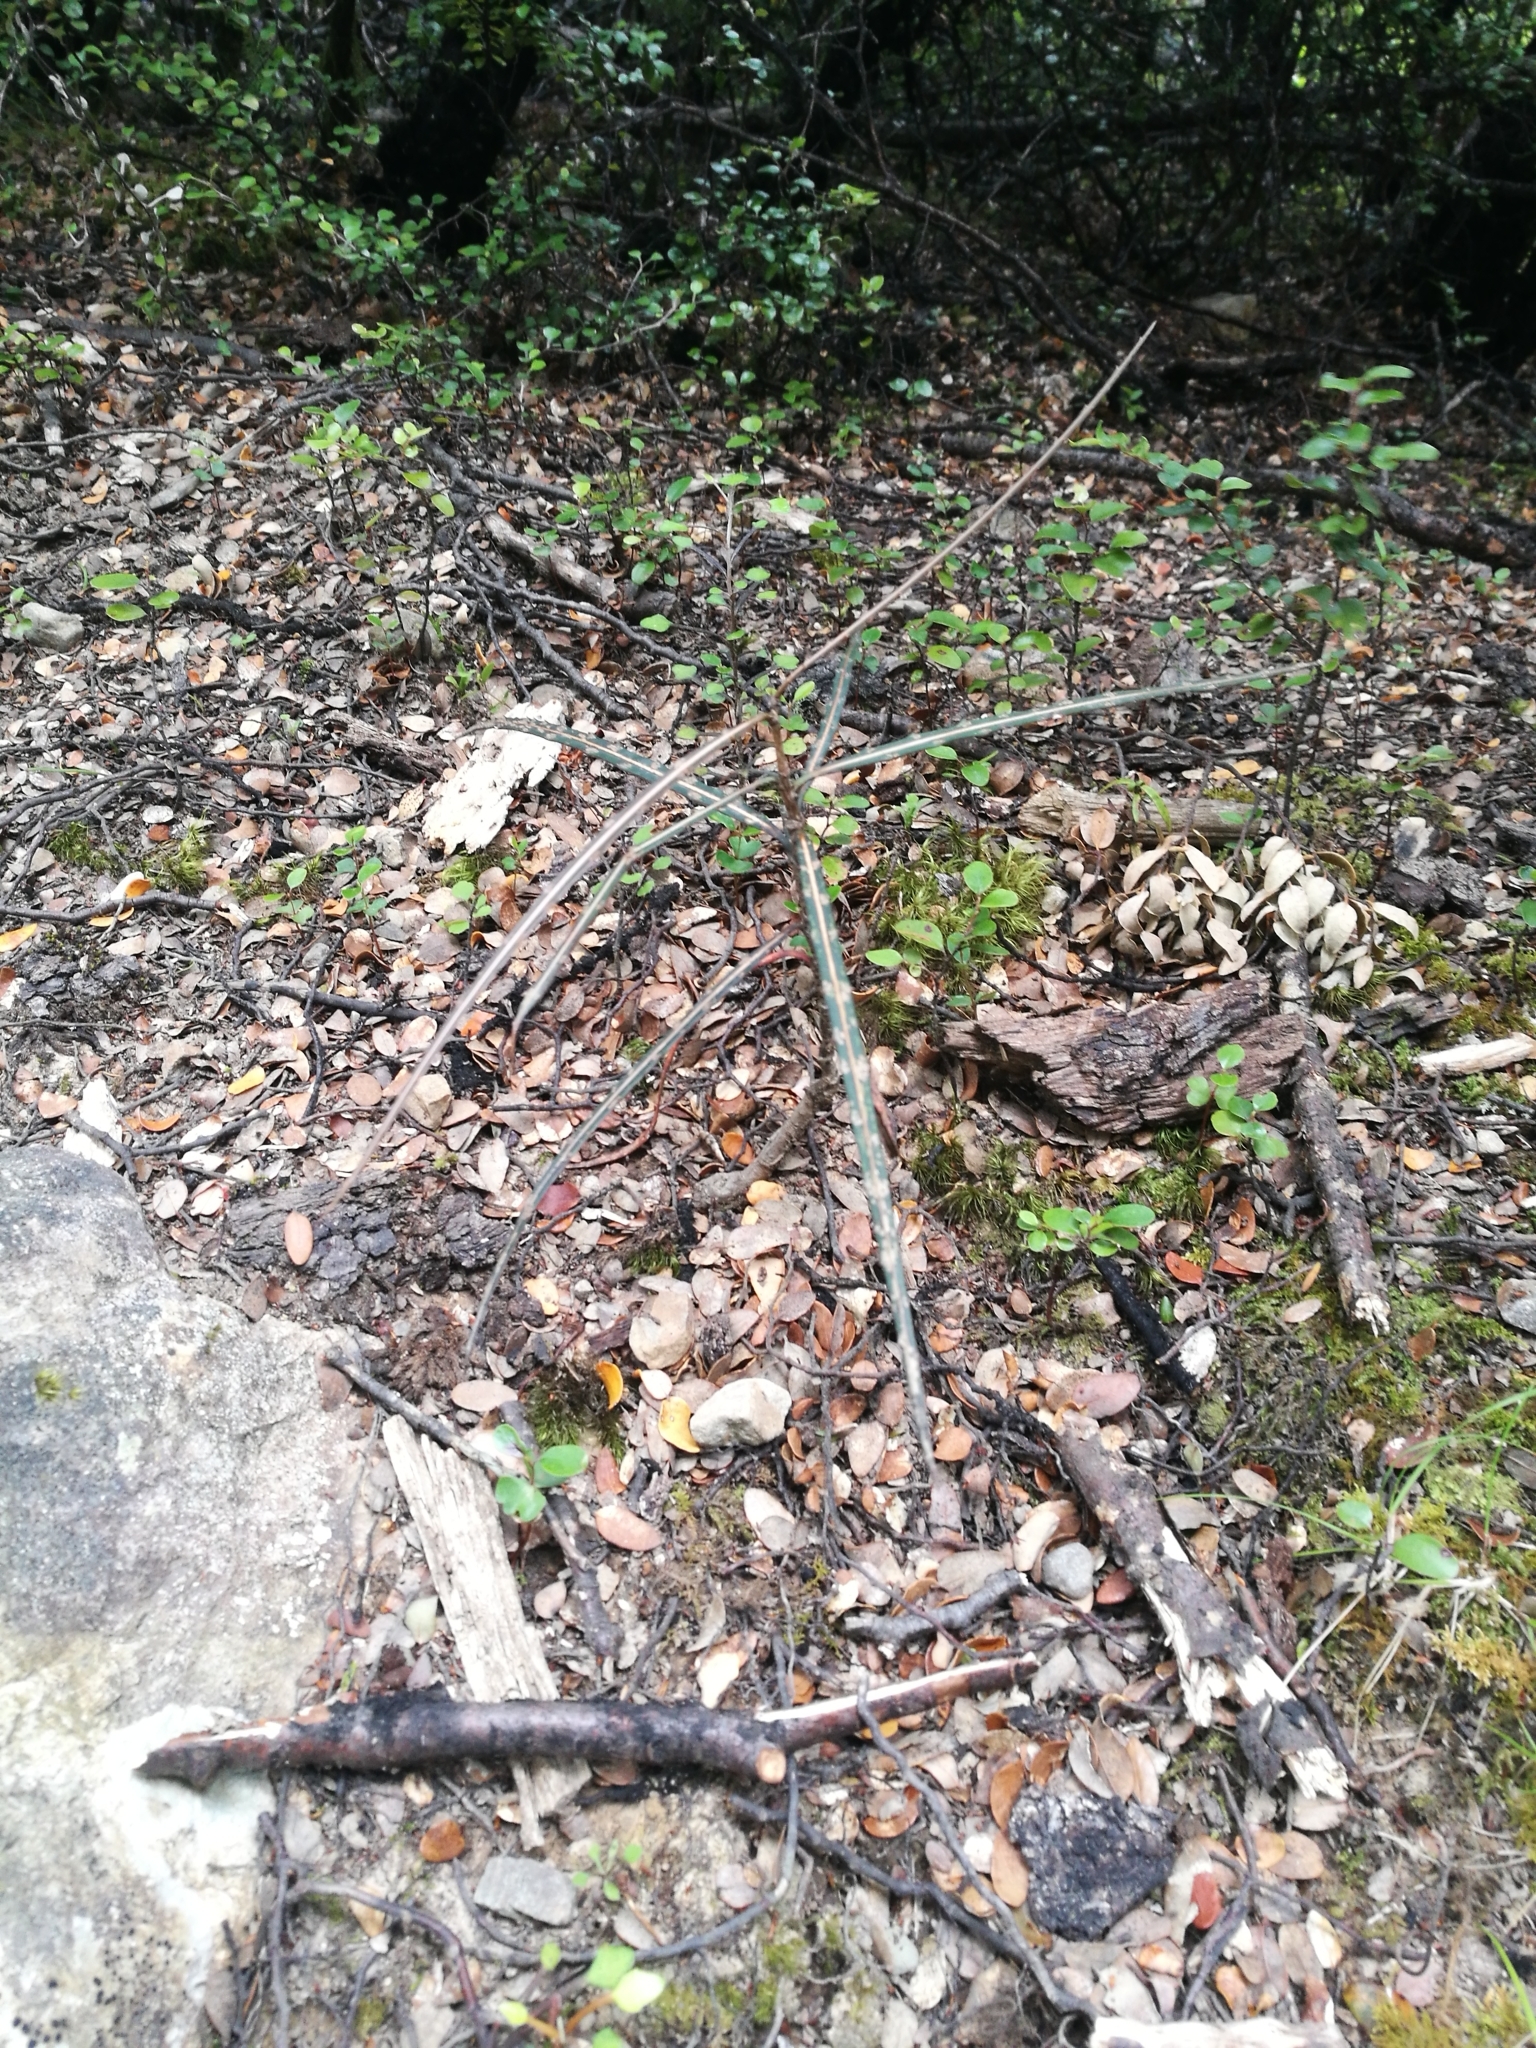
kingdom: Plantae
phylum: Tracheophyta
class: Magnoliopsida
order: Apiales
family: Araliaceae
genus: Pseudopanax
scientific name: Pseudopanax crassifolius
